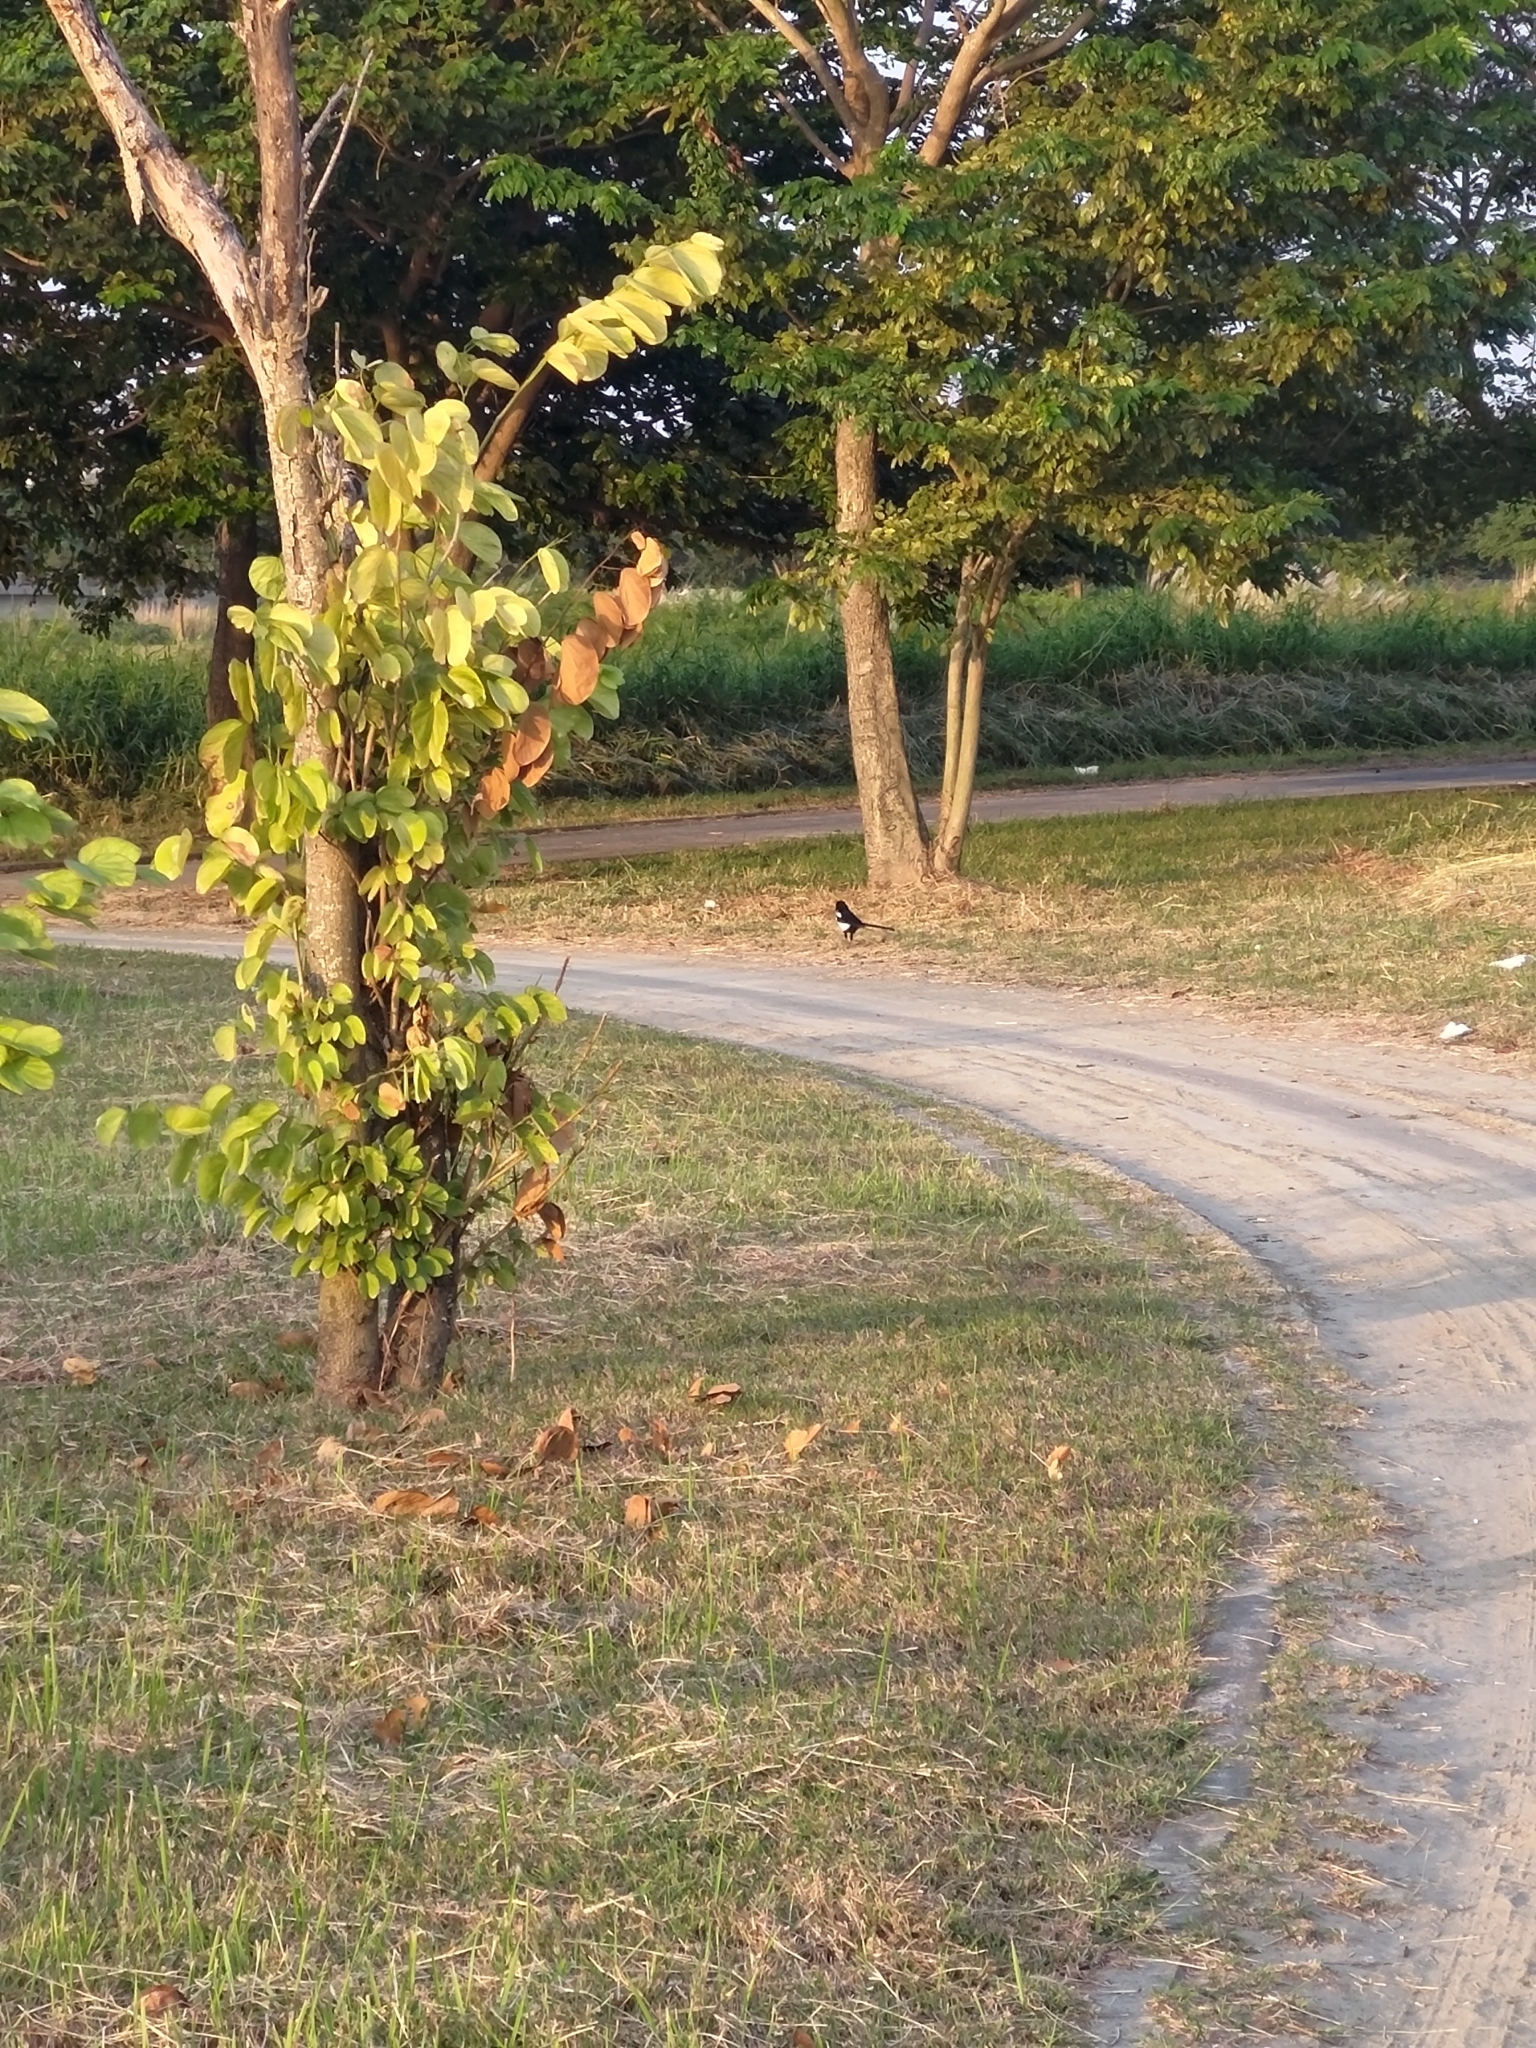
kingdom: Animalia
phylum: Chordata
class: Aves
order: Passeriformes
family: Corvidae
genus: Pica
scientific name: Pica serica
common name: Oriental magpie
